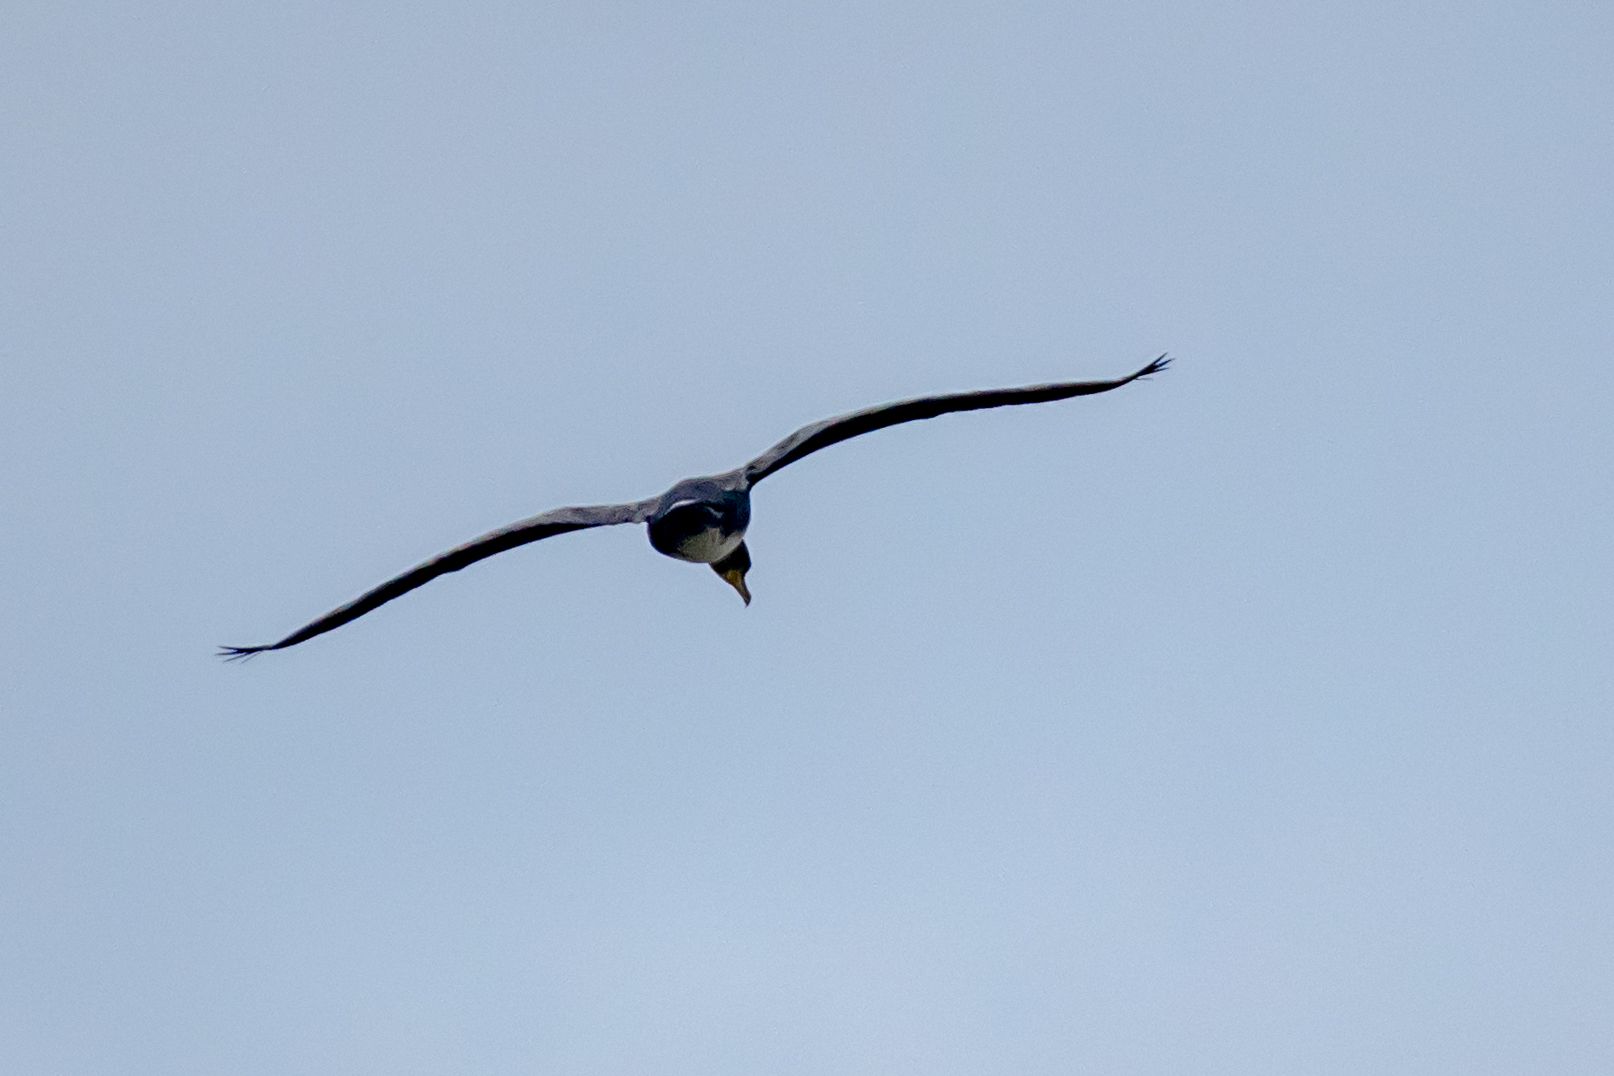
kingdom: Animalia
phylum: Chordata
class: Aves
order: Suliformes
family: Phalacrocoracidae
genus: Phalacrocorax
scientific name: Phalacrocorax carbo
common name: Great cormorant
